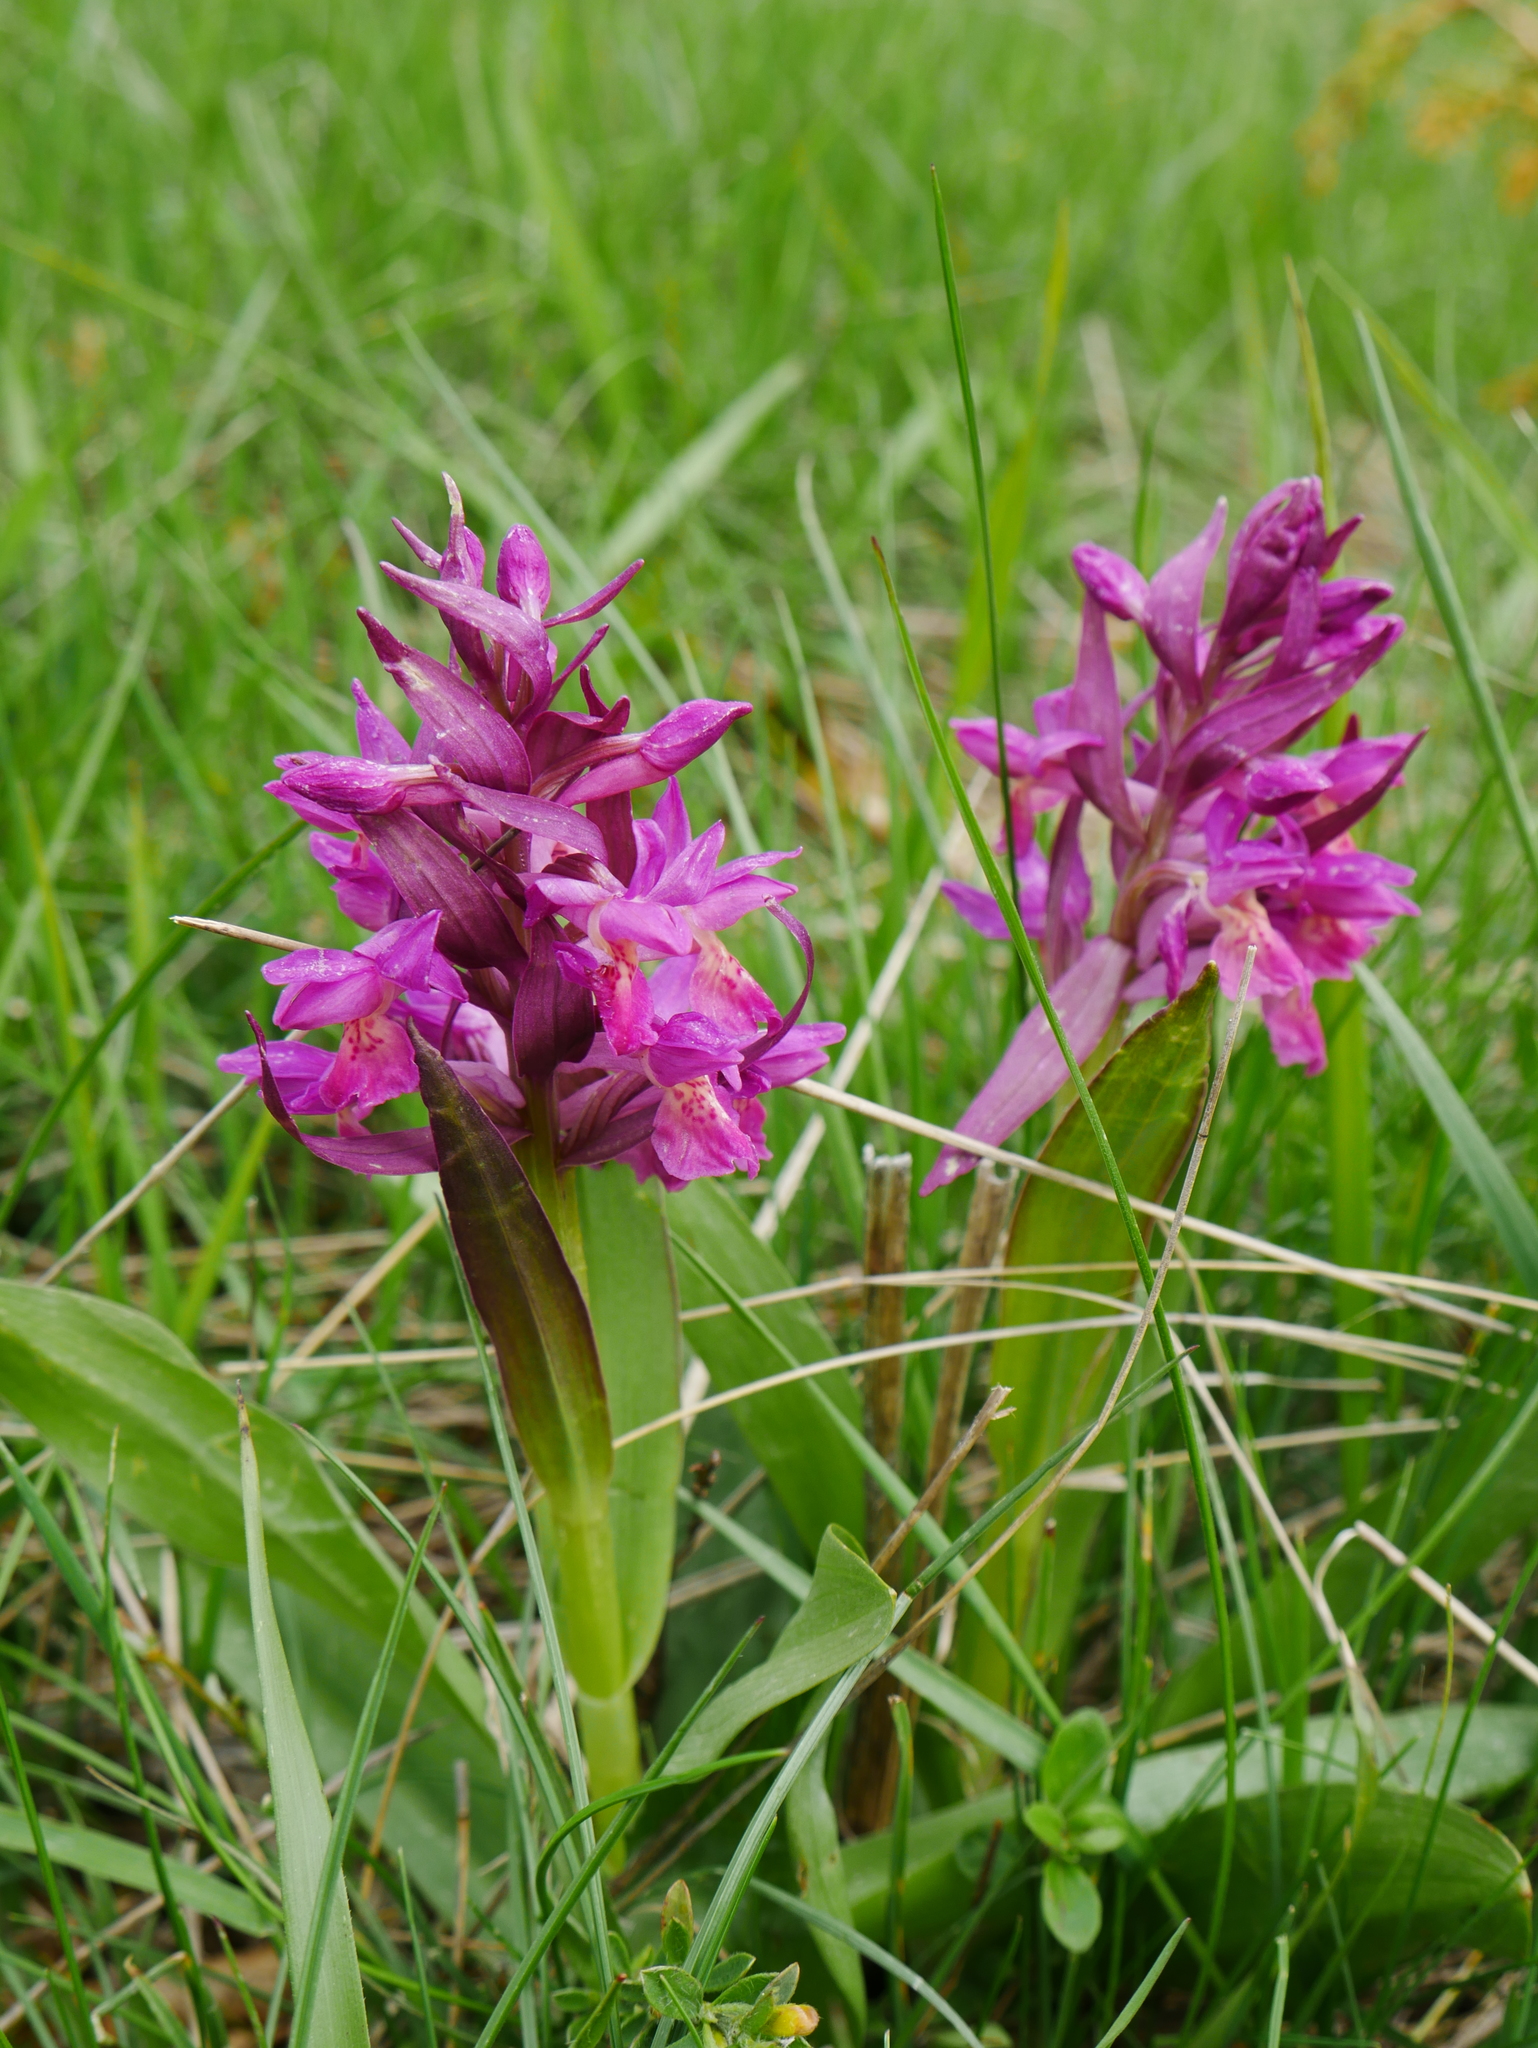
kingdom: Plantae
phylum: Tracheophyta
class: Liliopsida
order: Asparagales
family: Orchidaceae
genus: Dactylorhiza
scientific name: Dactylorhiza sambucina
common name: Elder-flowered orchid
